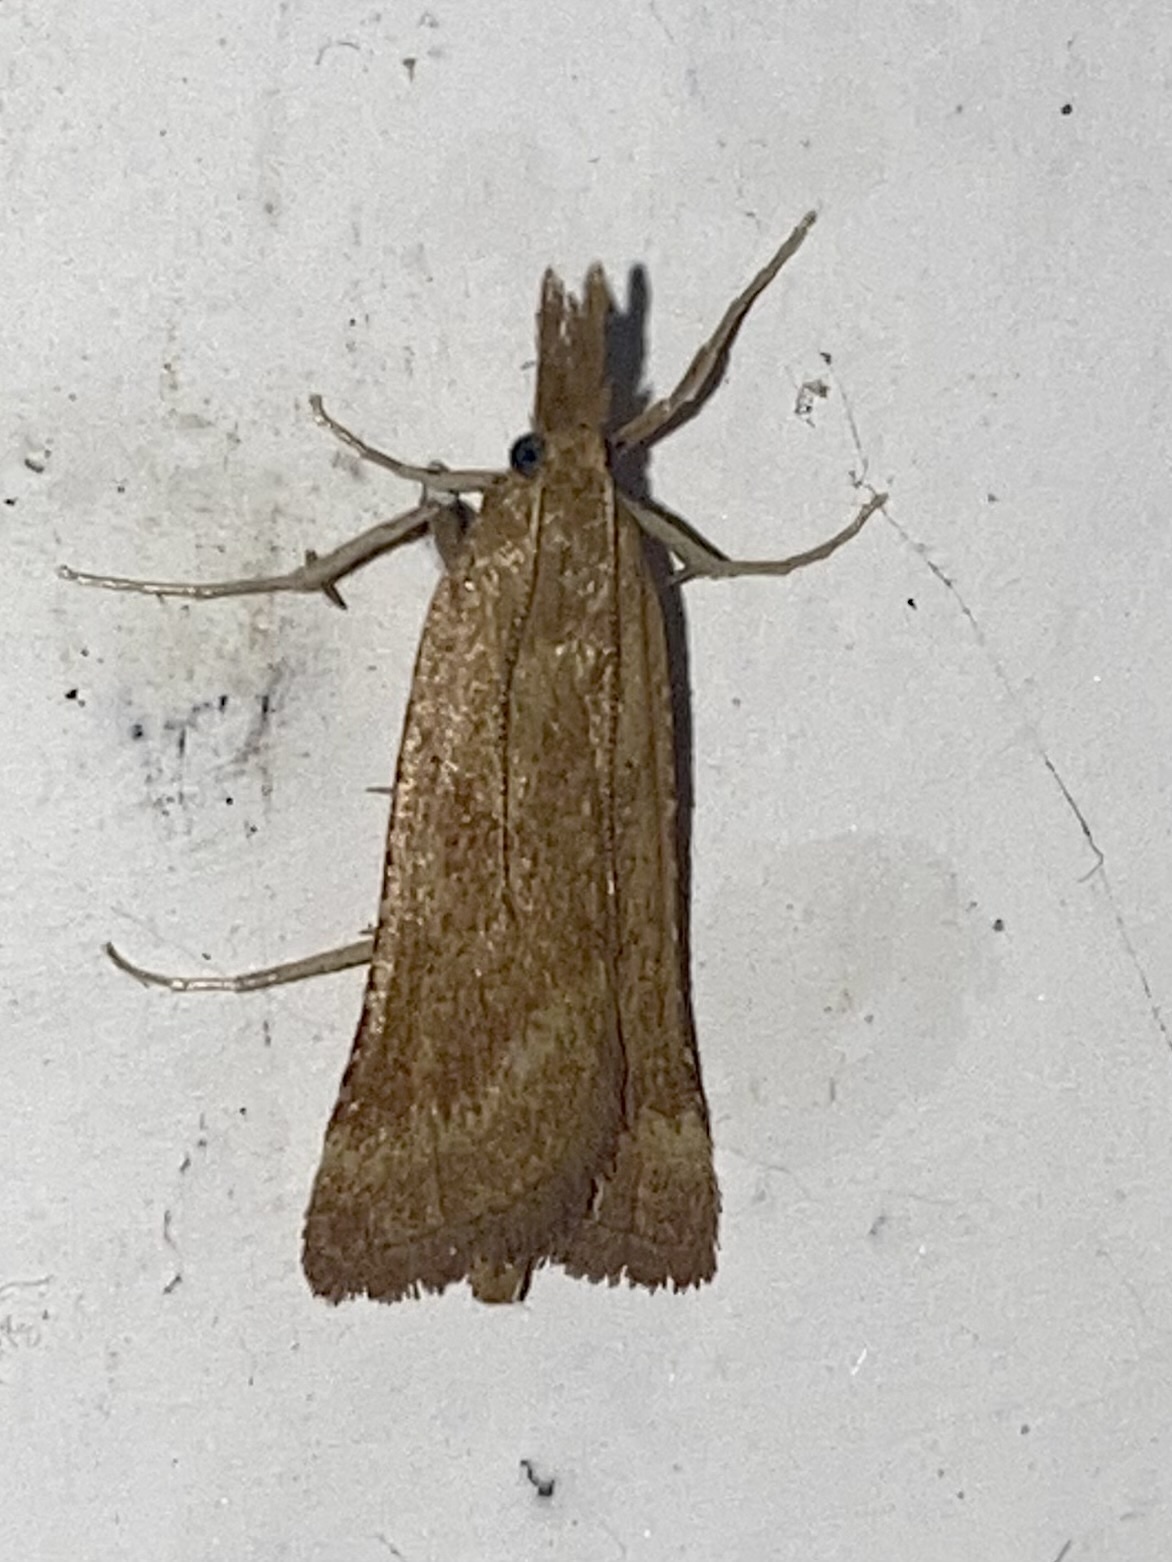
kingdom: Animalia
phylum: Arthropoda
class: Insecta
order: Lepidoptera
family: Pyralidae
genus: Synaphe
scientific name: Synaphe punctalis
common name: Long-legged tabby
